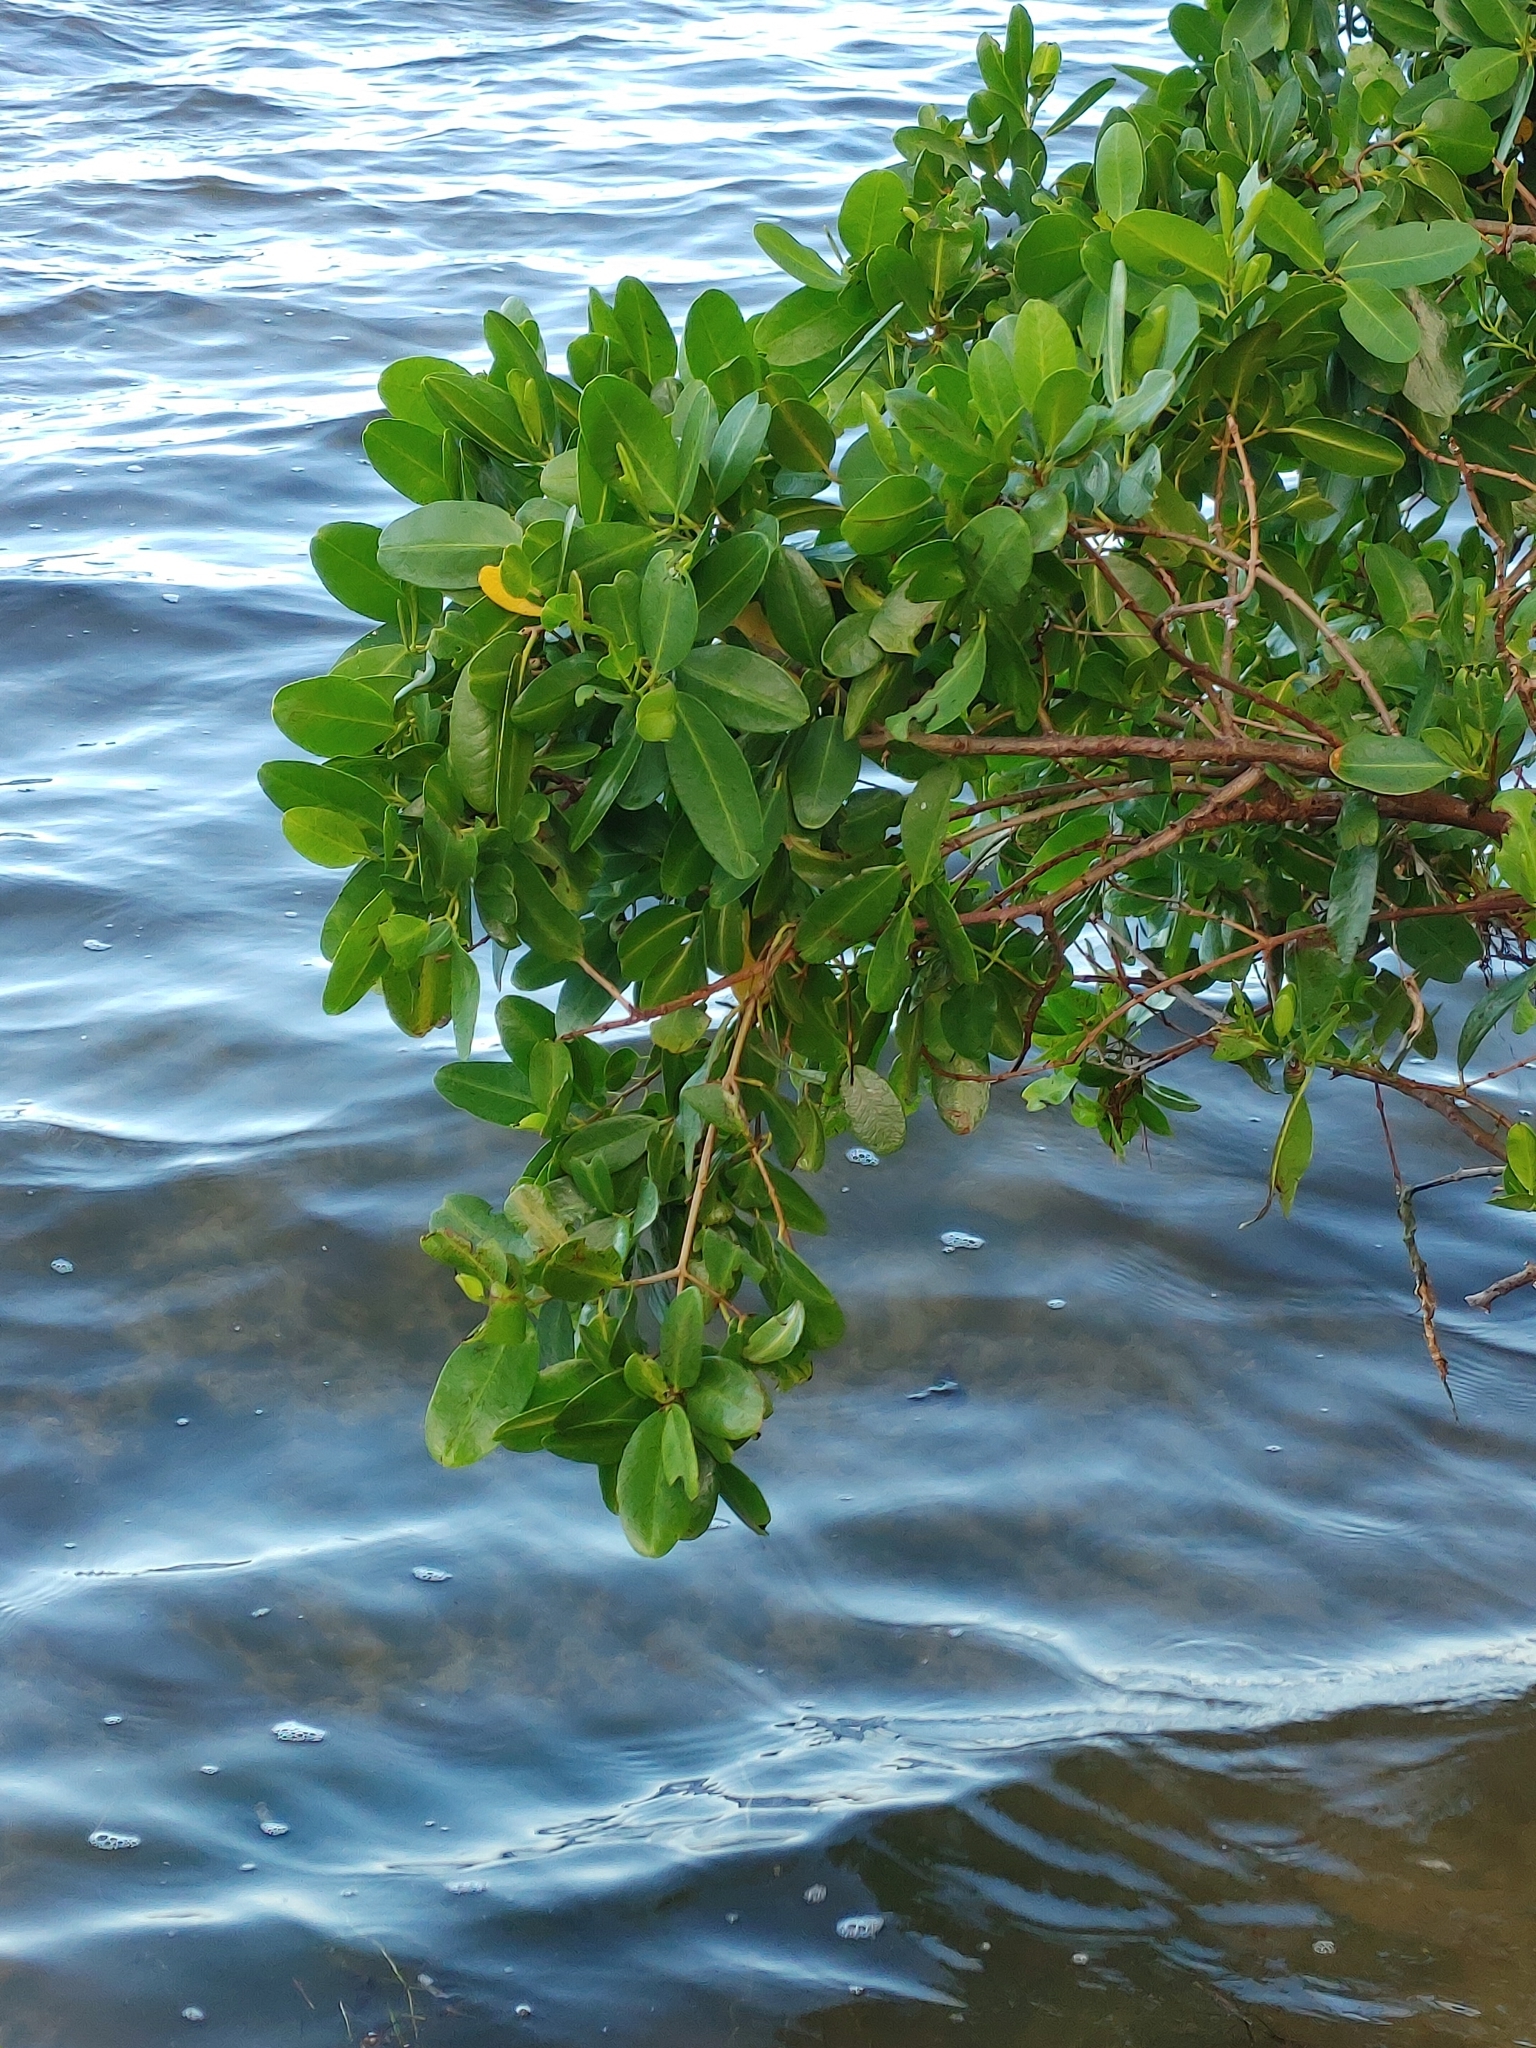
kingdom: Plantae
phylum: Tracheophyta
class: Magnoliopsida
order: Myrtales
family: Combretaceae
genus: Laguncularia
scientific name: Laguncularia racemosa
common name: White mangrove
